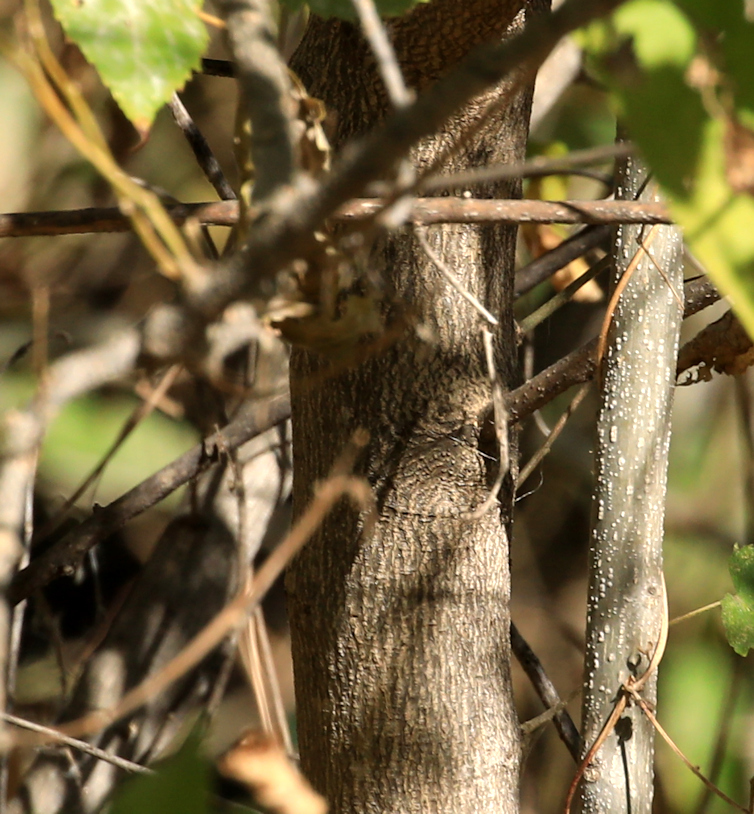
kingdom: Plantae
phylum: Tracheophyta
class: Magnoliopsida
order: Malpighiales
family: Euphorbiaceae
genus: Croton
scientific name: Croton megalobotrys
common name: Large fever berry
